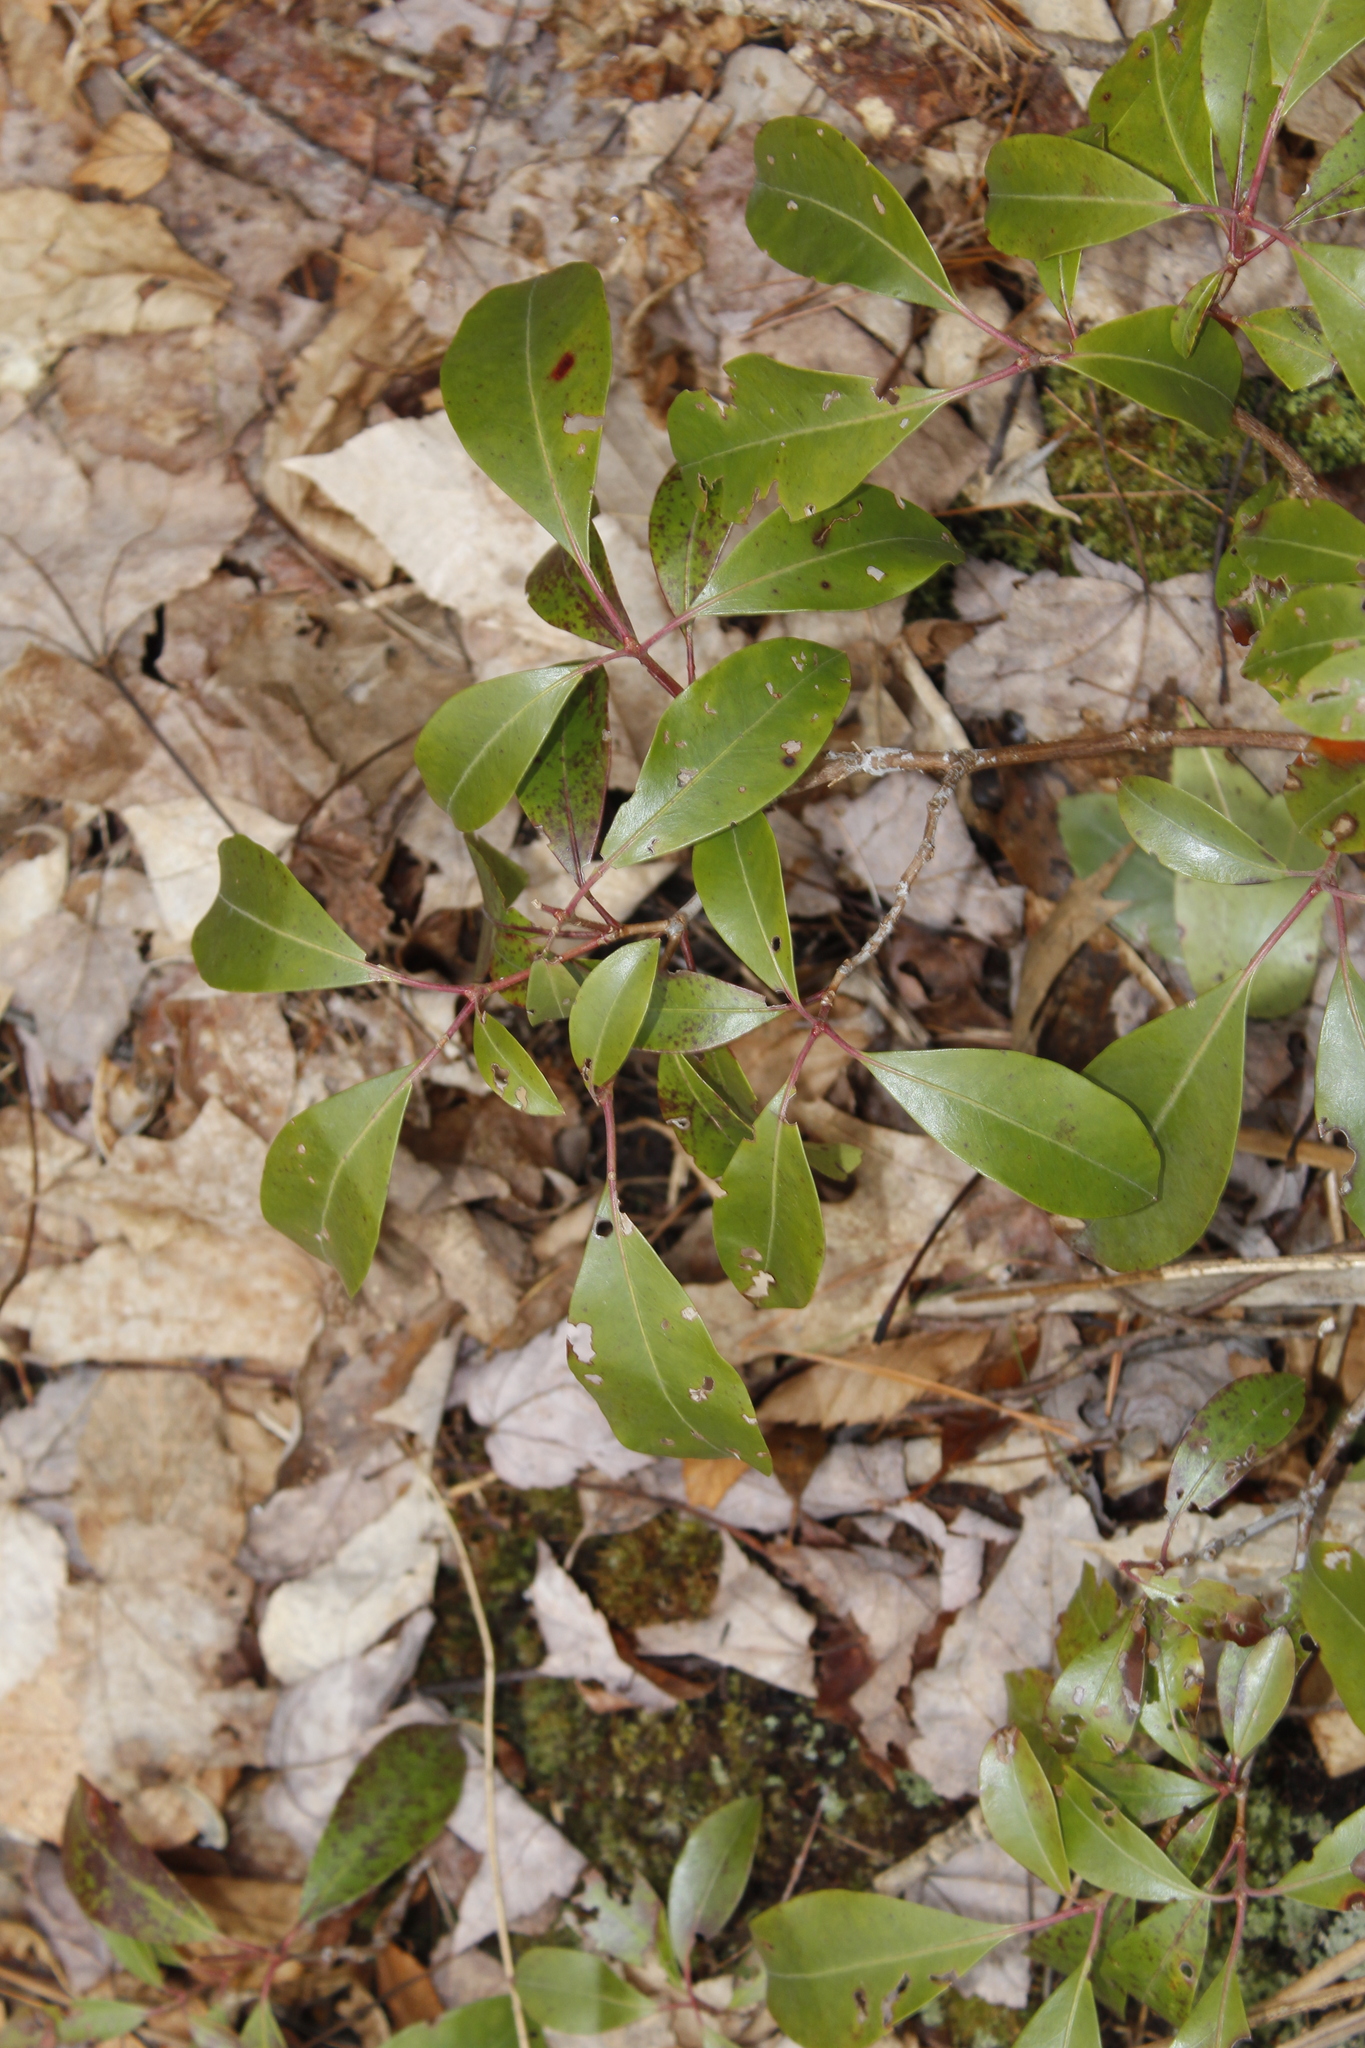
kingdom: Plantae
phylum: Tracheophyta
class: Magnoliopsida
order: Ericales
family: Ericaceae
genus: Kalmia
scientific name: Kalmia latifolia
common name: Mountain-laurel
